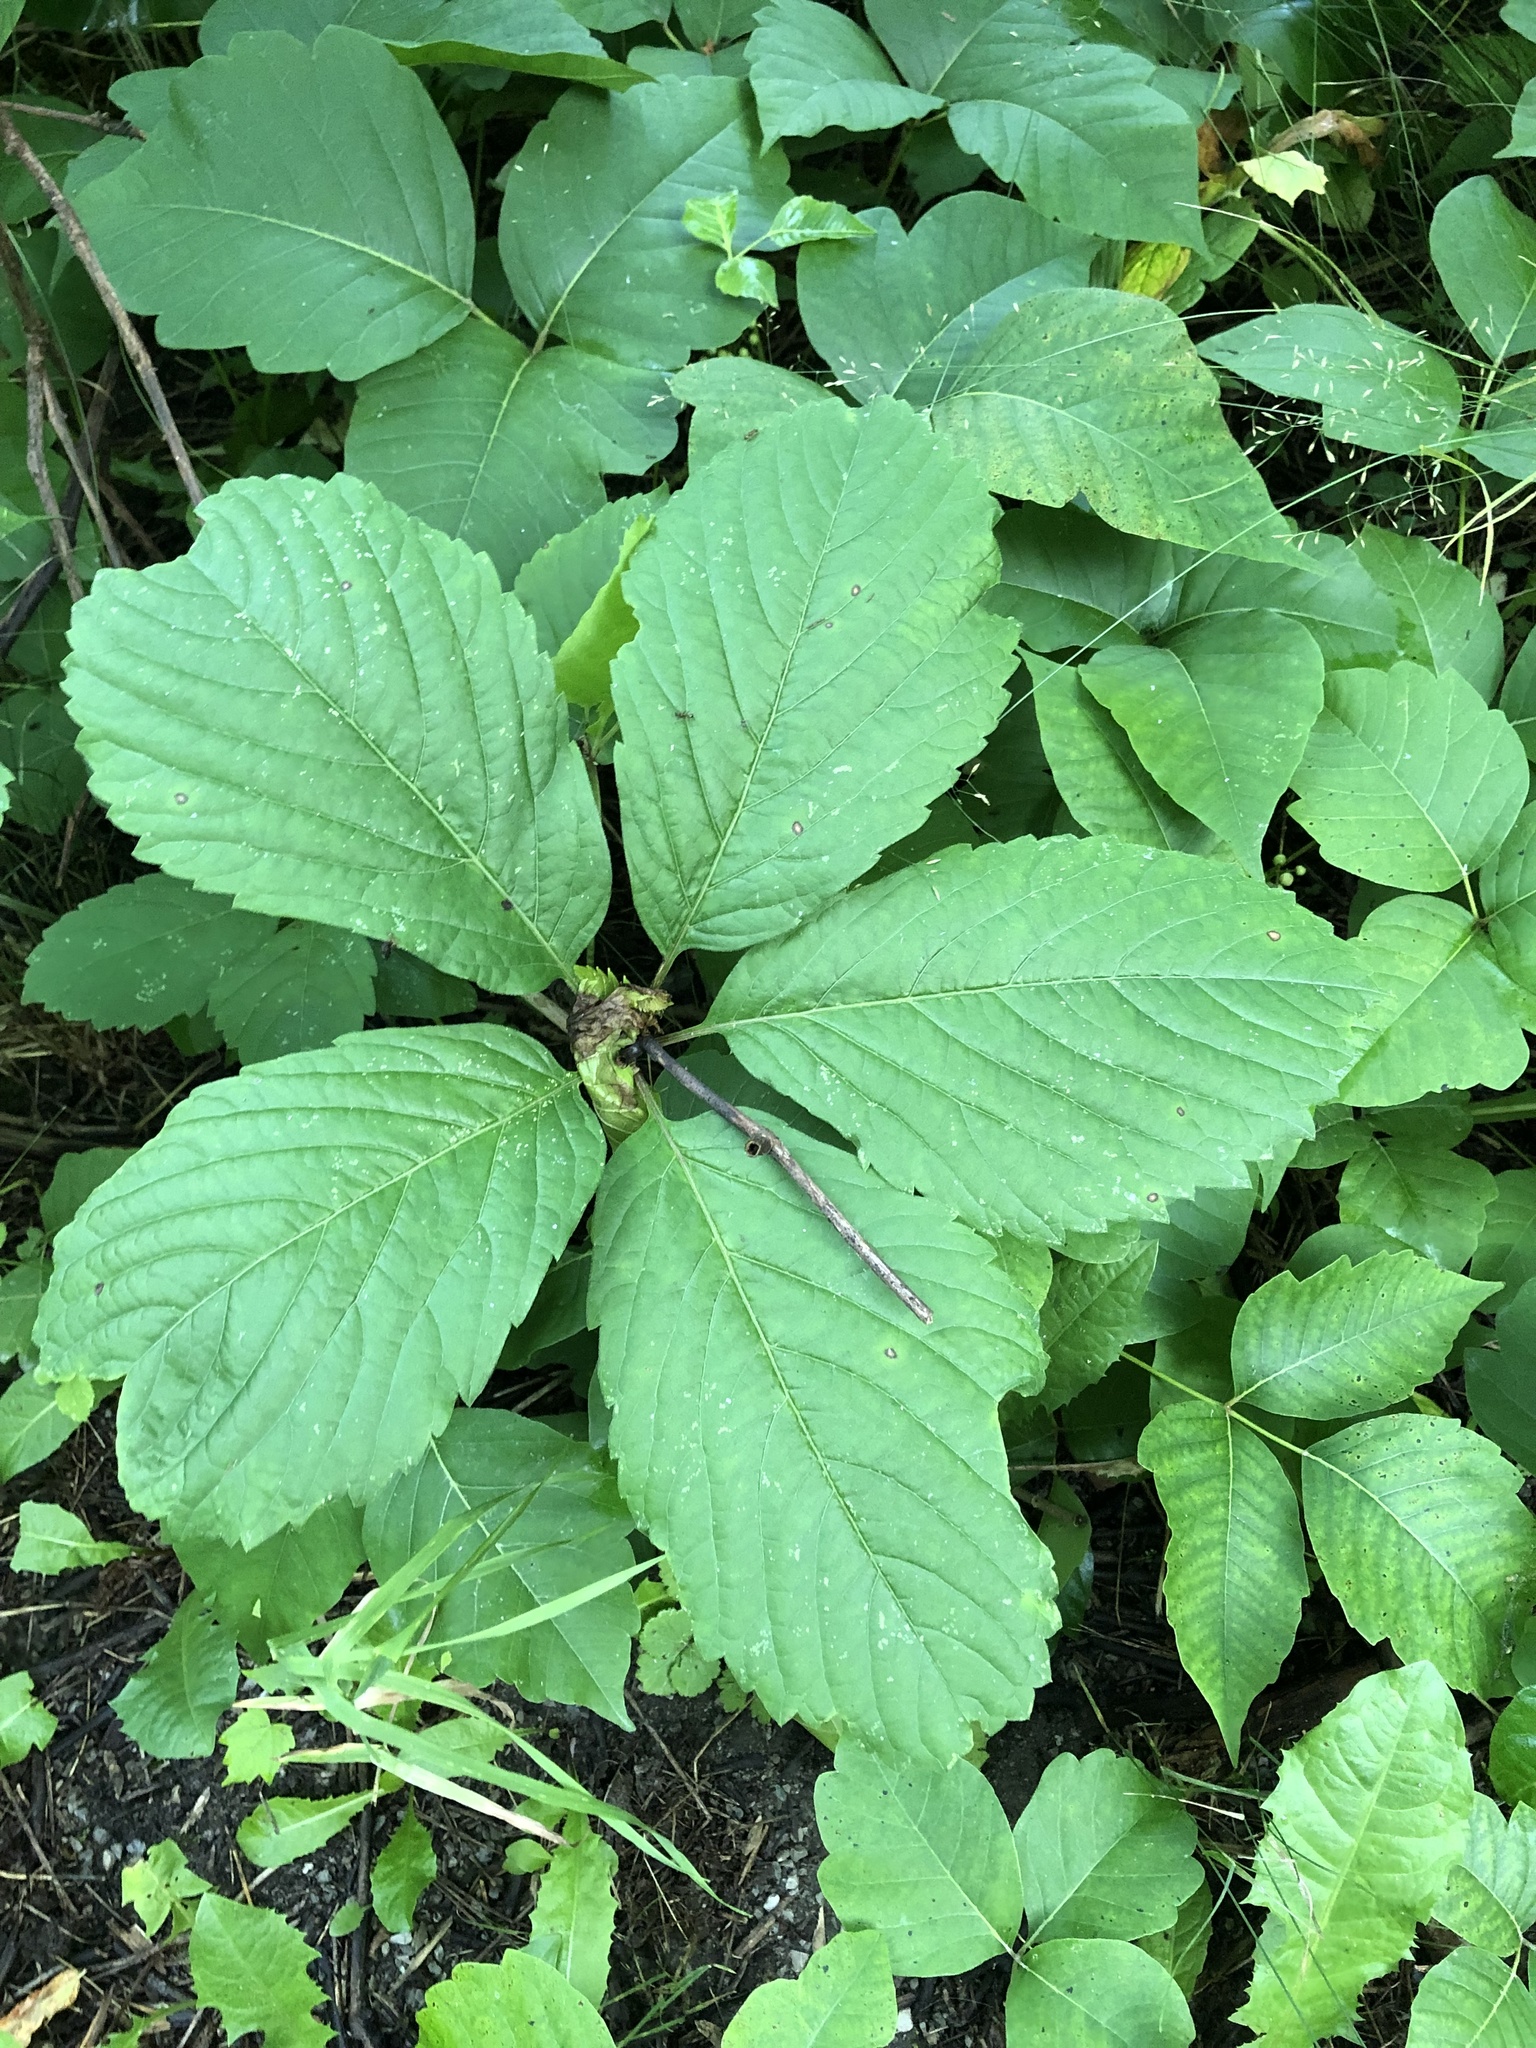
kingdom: Plantae
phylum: Tracheophyta
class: Magnoliopsida
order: Vitales
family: Vitaceae
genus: Parthenocissus
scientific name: Parthenocissus inserta
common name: False virginia-creeper
